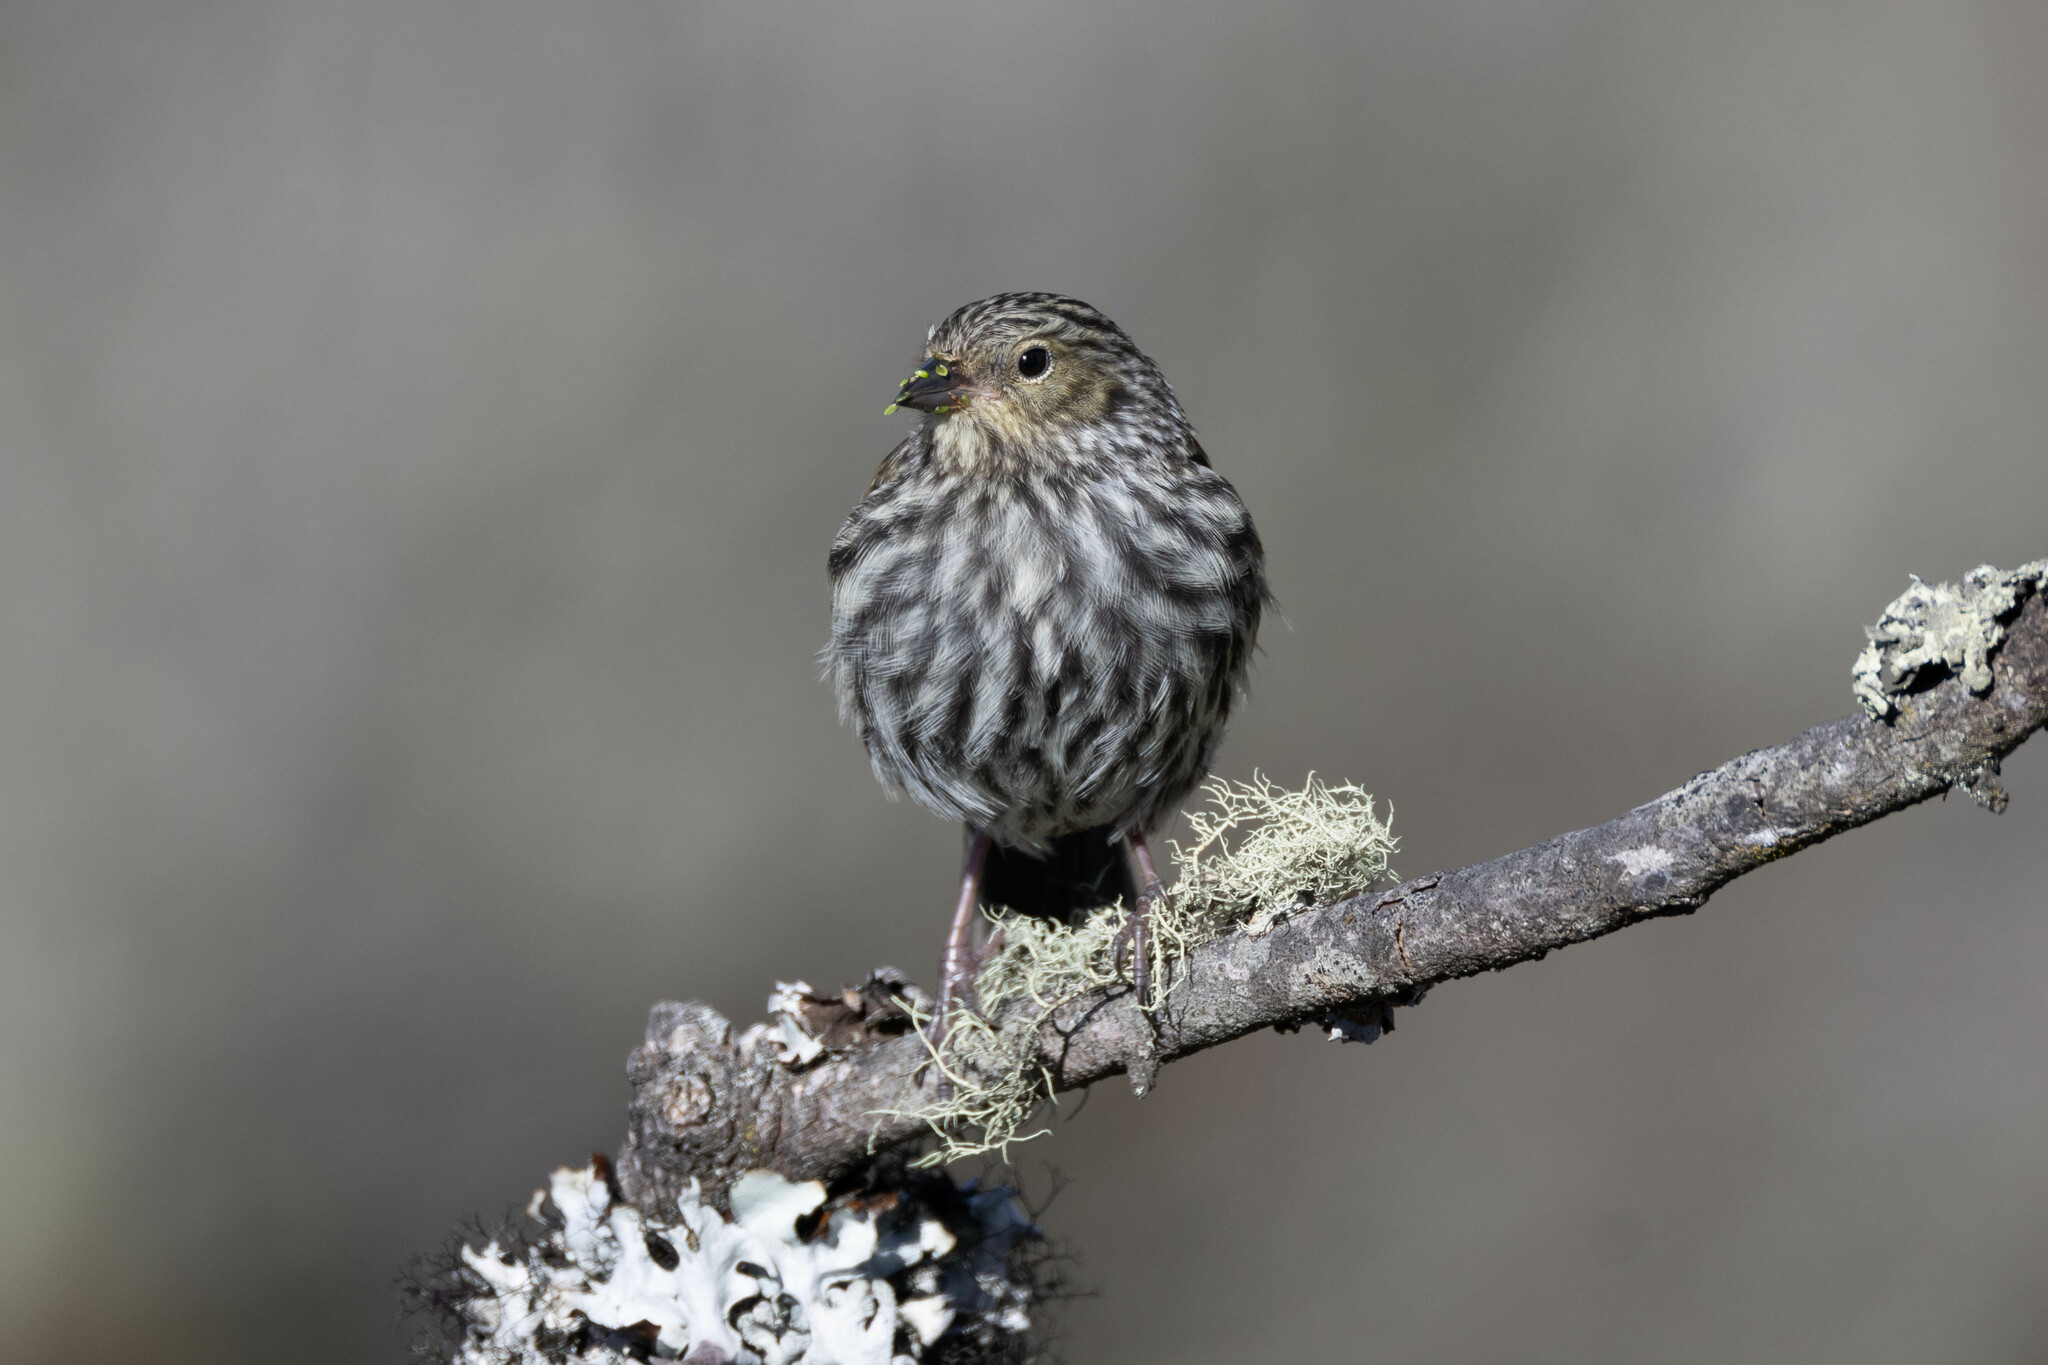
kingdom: Animalia
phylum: Chordata
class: Aves
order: Passeriformes
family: Thraupidae
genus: Geospizopsis
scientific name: Geospizopsis unicolor
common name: Plumbeous sierra-finch
